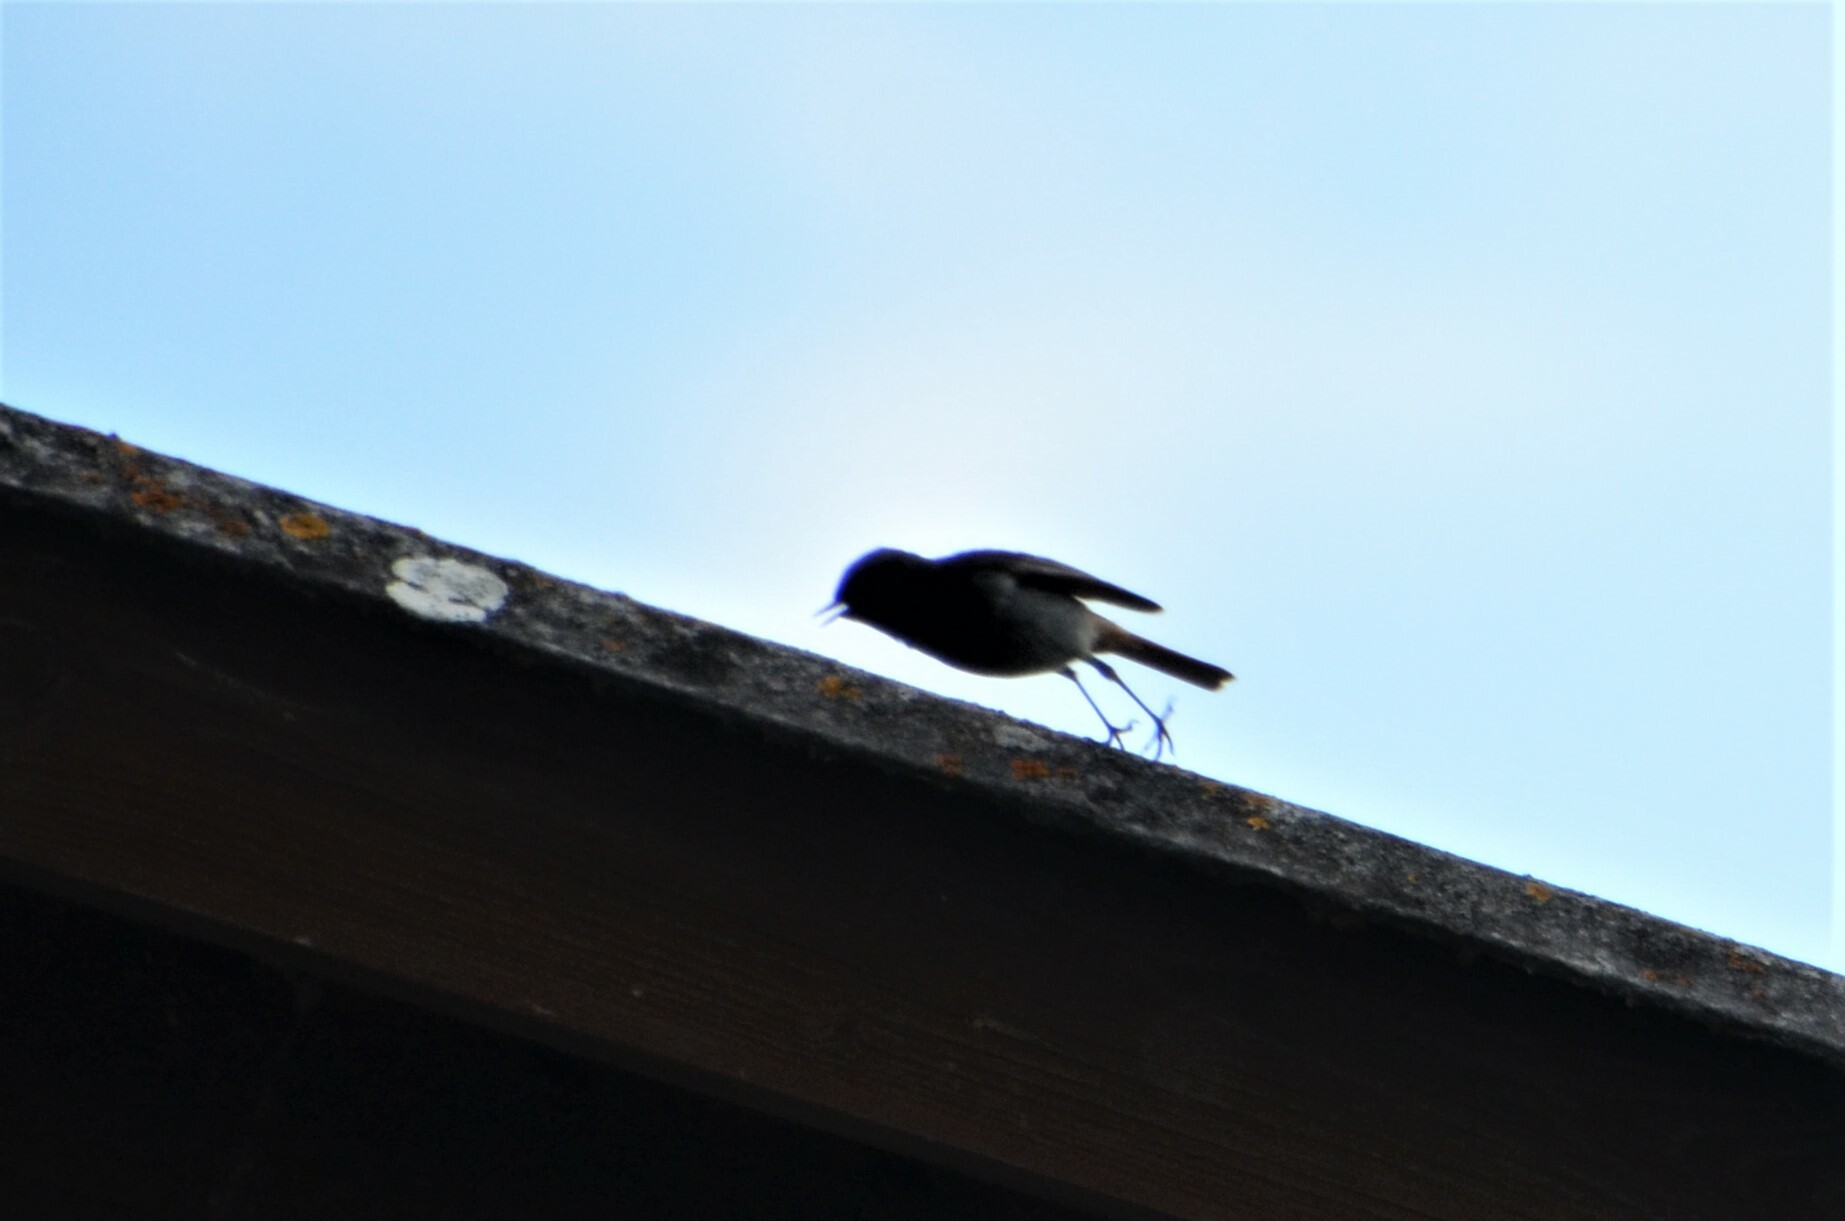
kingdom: Animalia
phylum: Chordata
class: Aves
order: Passeriformes
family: Muscicapidae
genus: Phoenicurus
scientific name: Phoenicurus ochruros
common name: Black redstart
